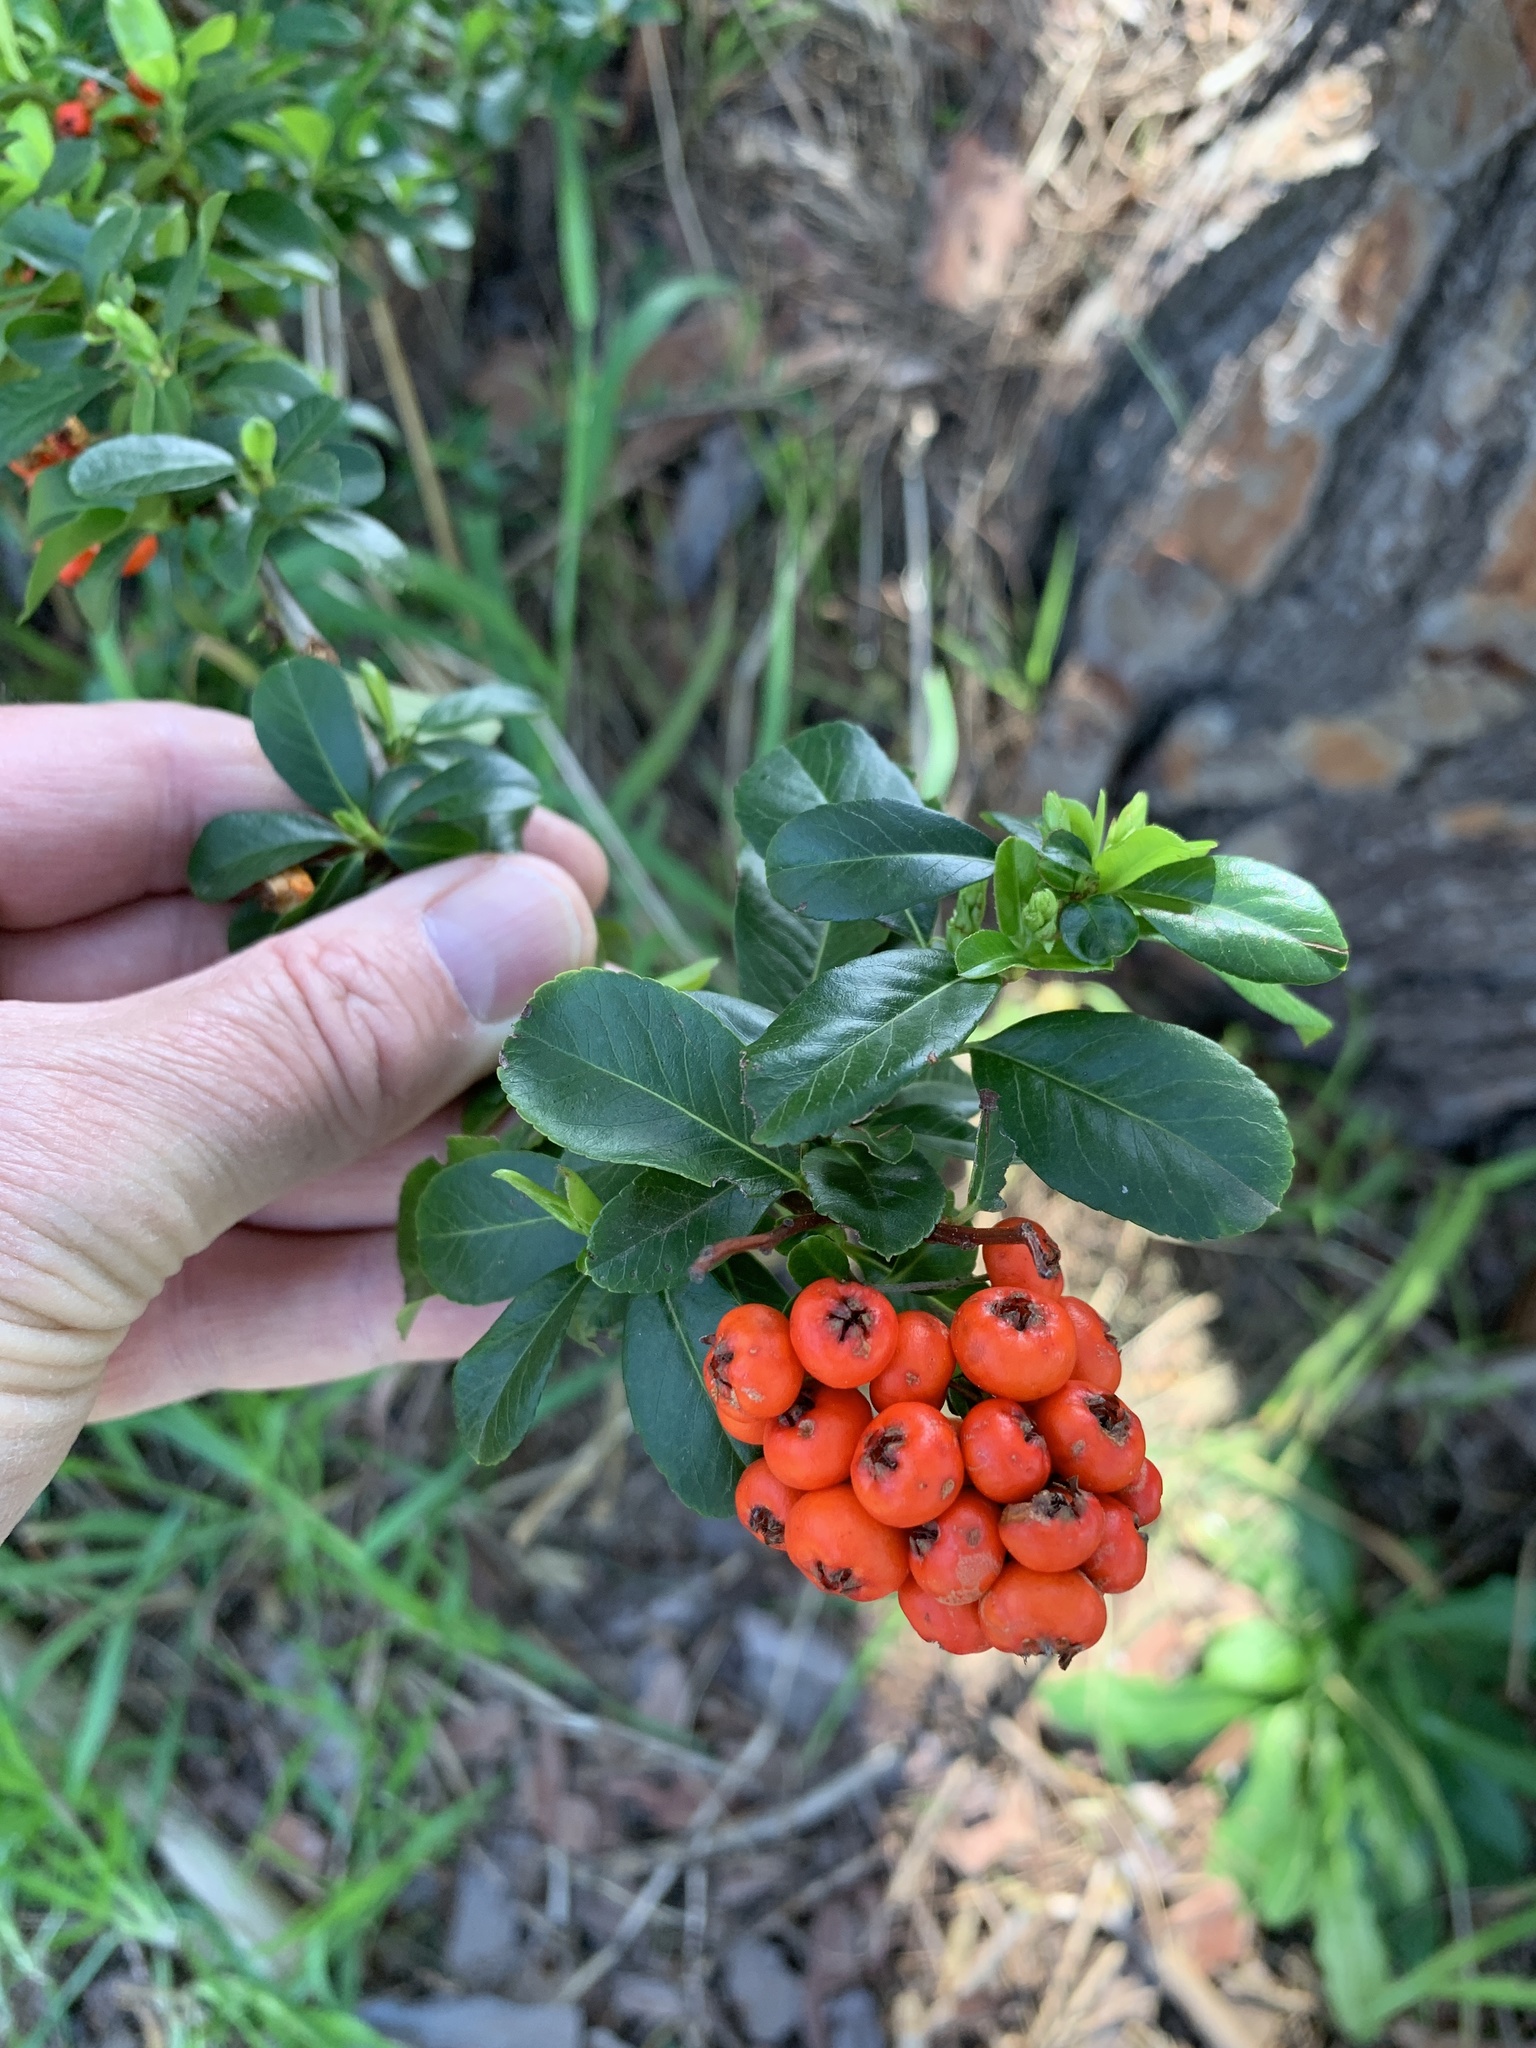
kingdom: Plantae
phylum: Tracheophyta
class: Magnoliopsida
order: Rosales
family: Rosaceae
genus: Pyracantha
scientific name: Pyracantha crenulata
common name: Nepalese firethorn
